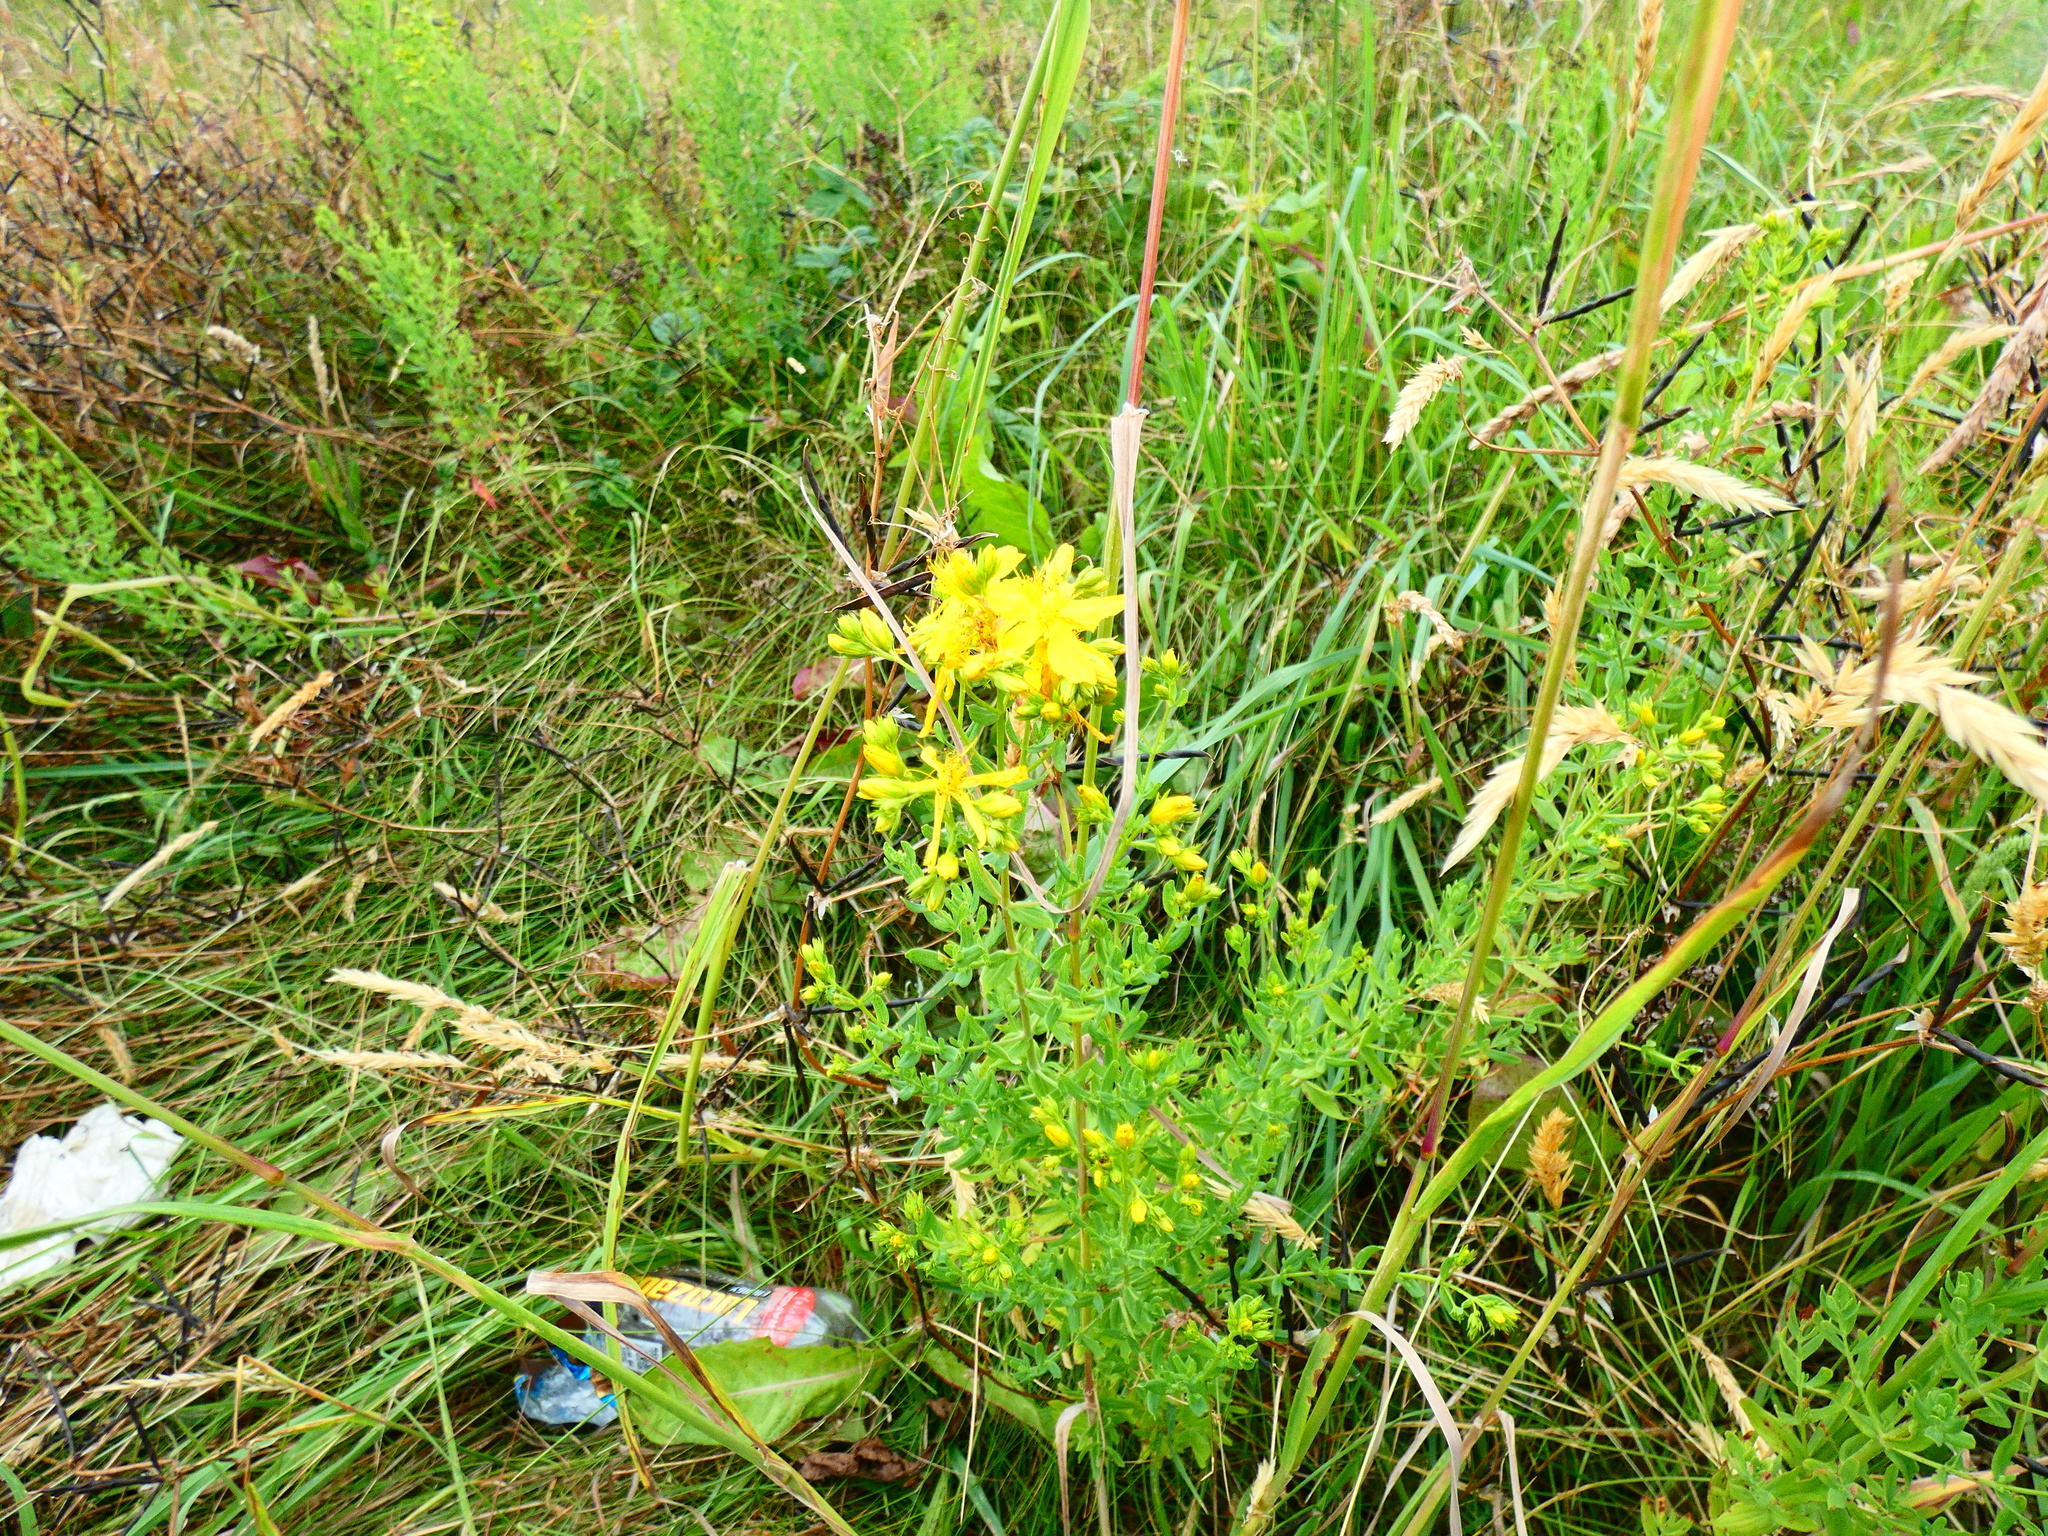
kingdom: Plantae
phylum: Tracheophyta
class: Magnoliopsida
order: Malpighiales
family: Hypericaceae
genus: Hypericum
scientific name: Hypericum perforatum
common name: Common st. johnswort
